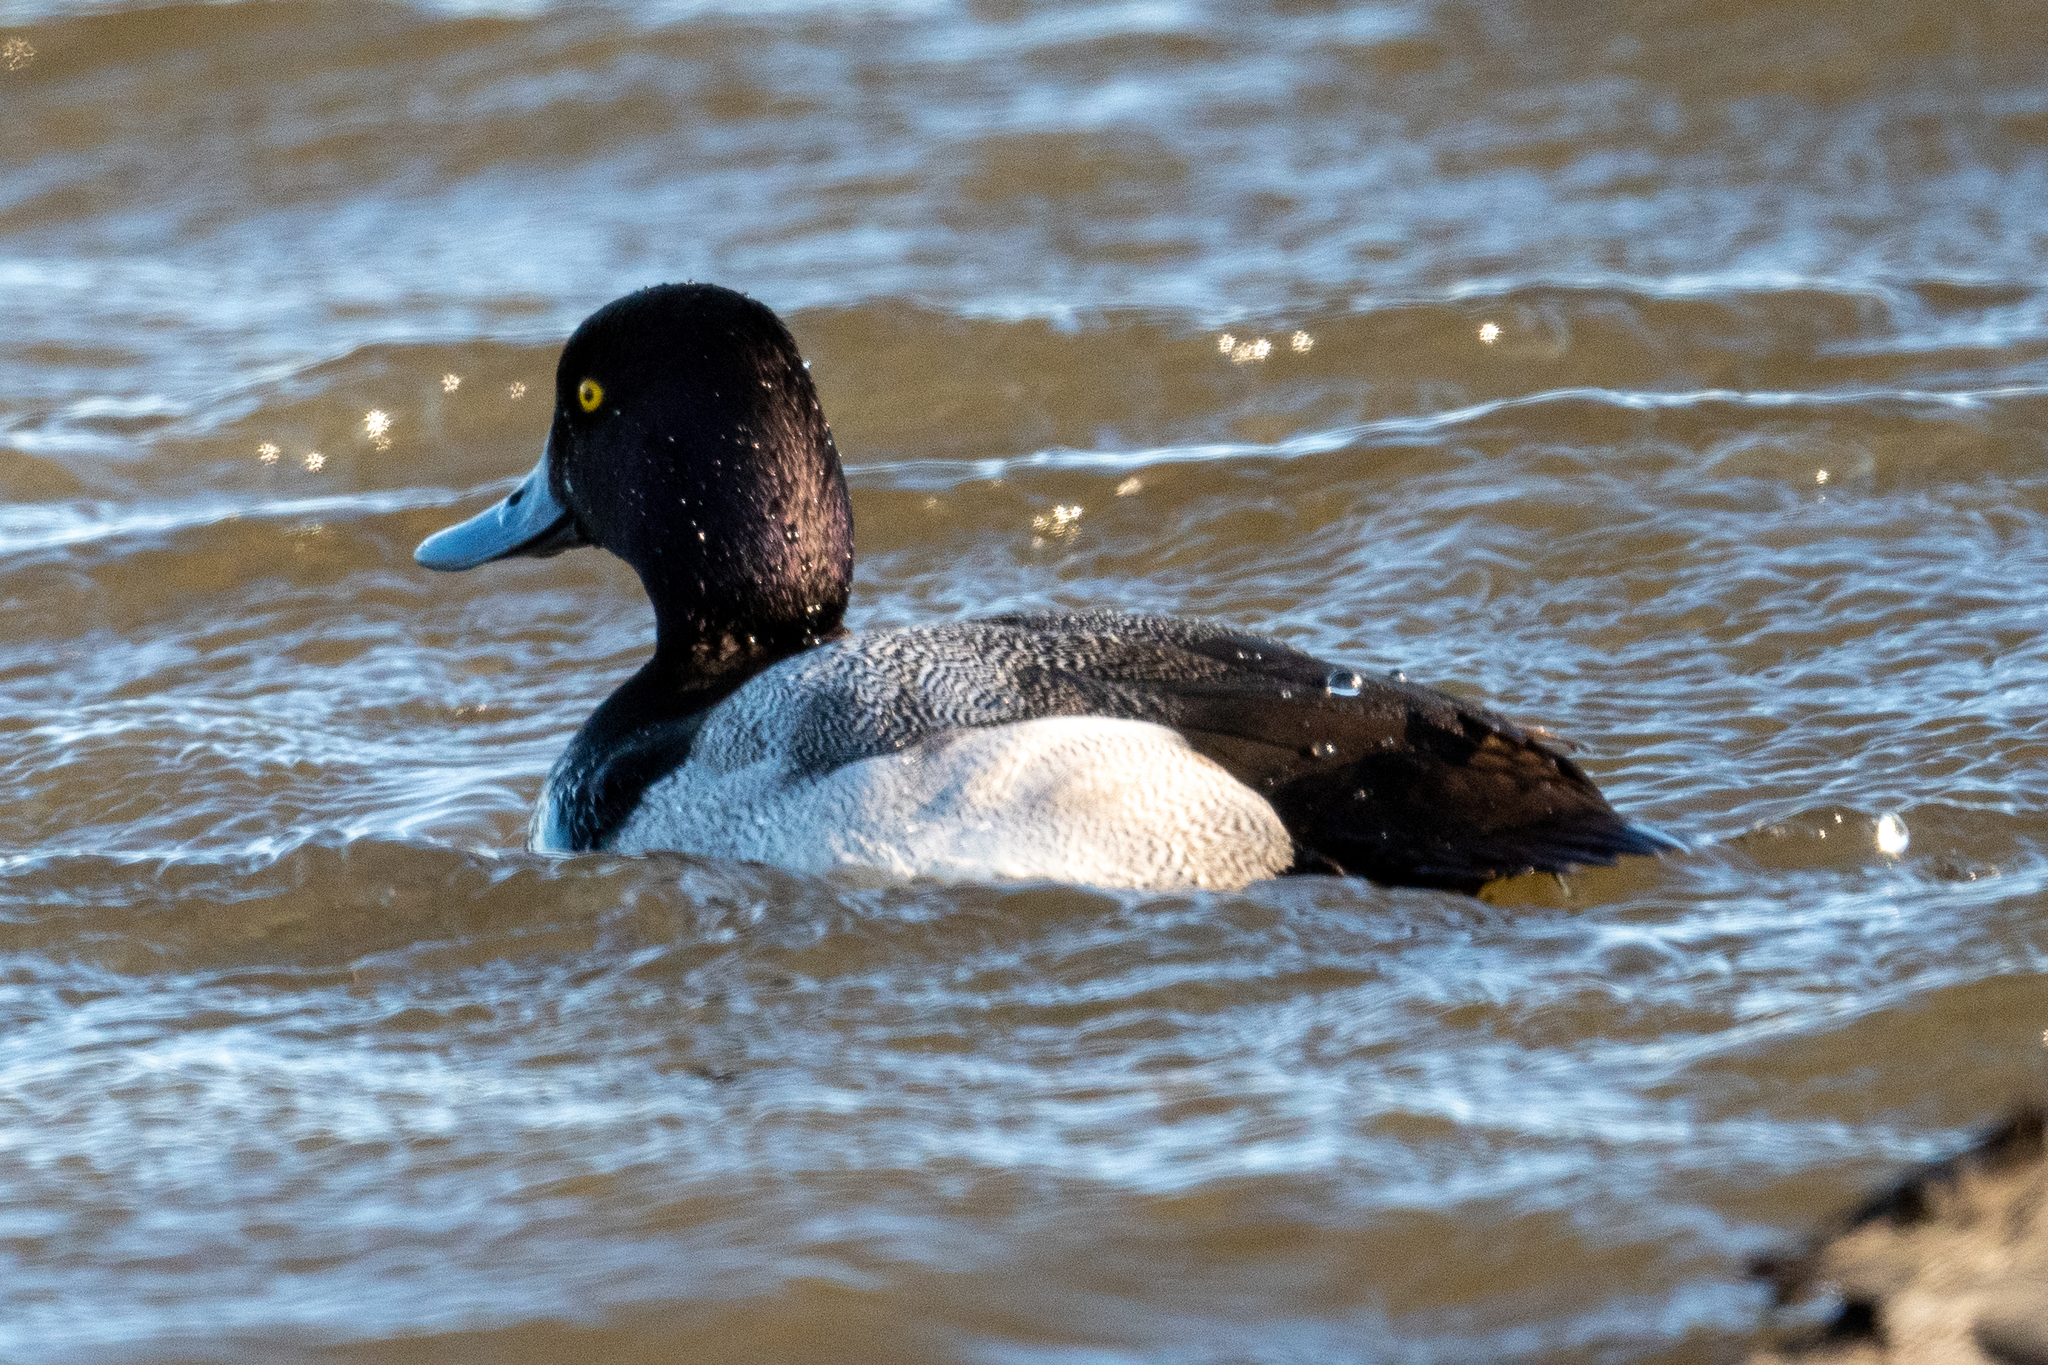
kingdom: Animalia
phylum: Chordata
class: Aves
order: Anseriformes
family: Anatidae
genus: Aythya
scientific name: Aythya affinis
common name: Lesser scaup
